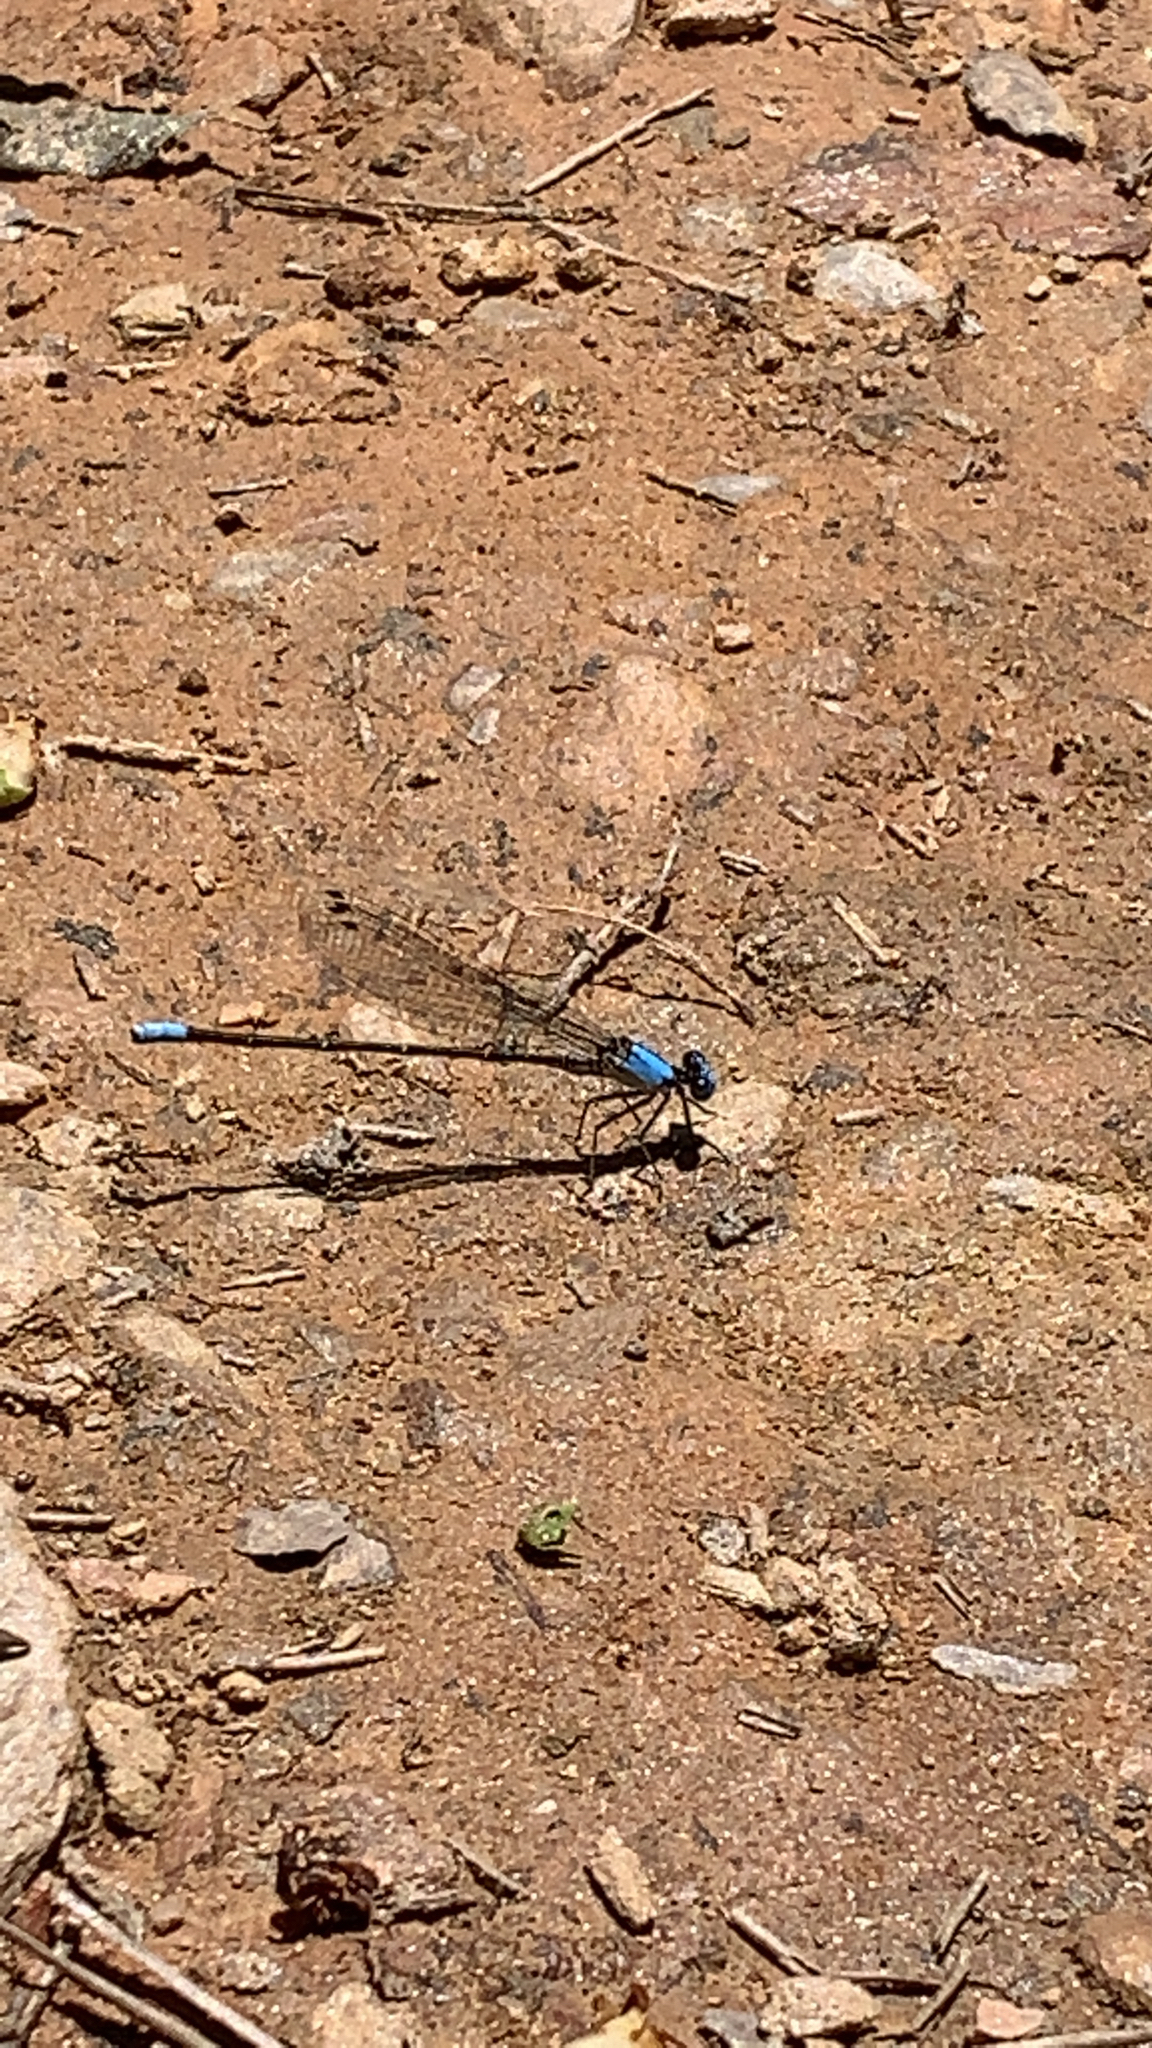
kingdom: Animalia
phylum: Arthropoda
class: Insecta
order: Odonata
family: Coenagrionidae
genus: Argia
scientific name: Argia apicalis
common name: Blue-fronted dancer
